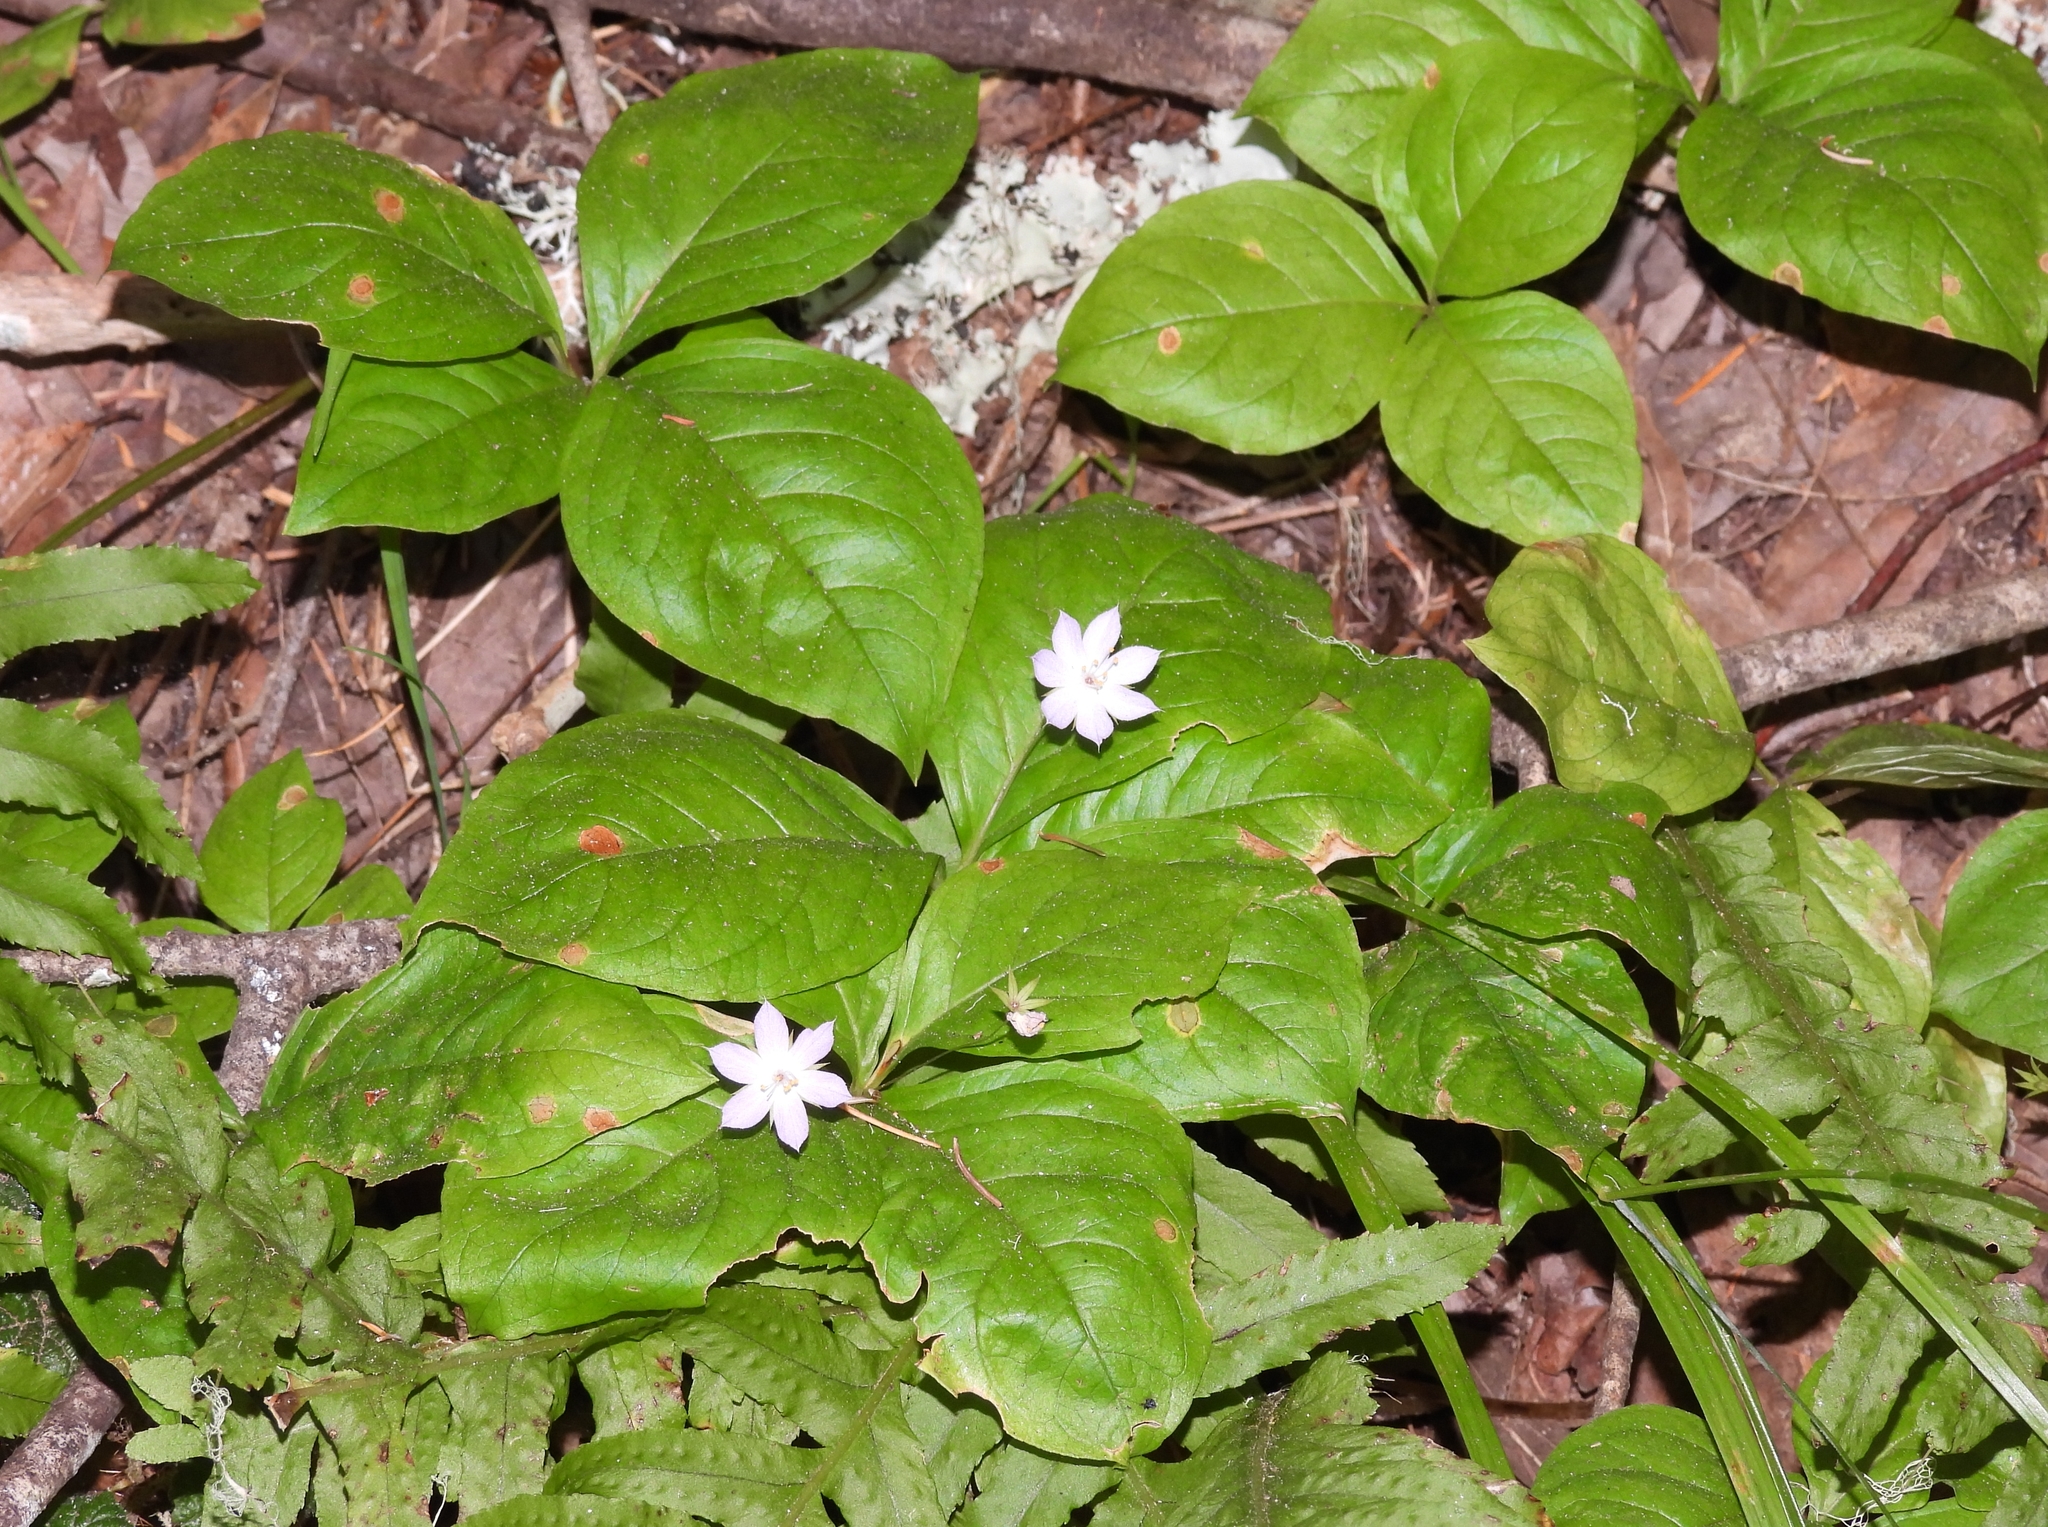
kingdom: Plantae
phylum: Tracheophyta
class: Magnoliopsida
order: Ericales
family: Primulaceae
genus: Lysimachia
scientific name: Lysimachia latifolia
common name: Pacific starflower
